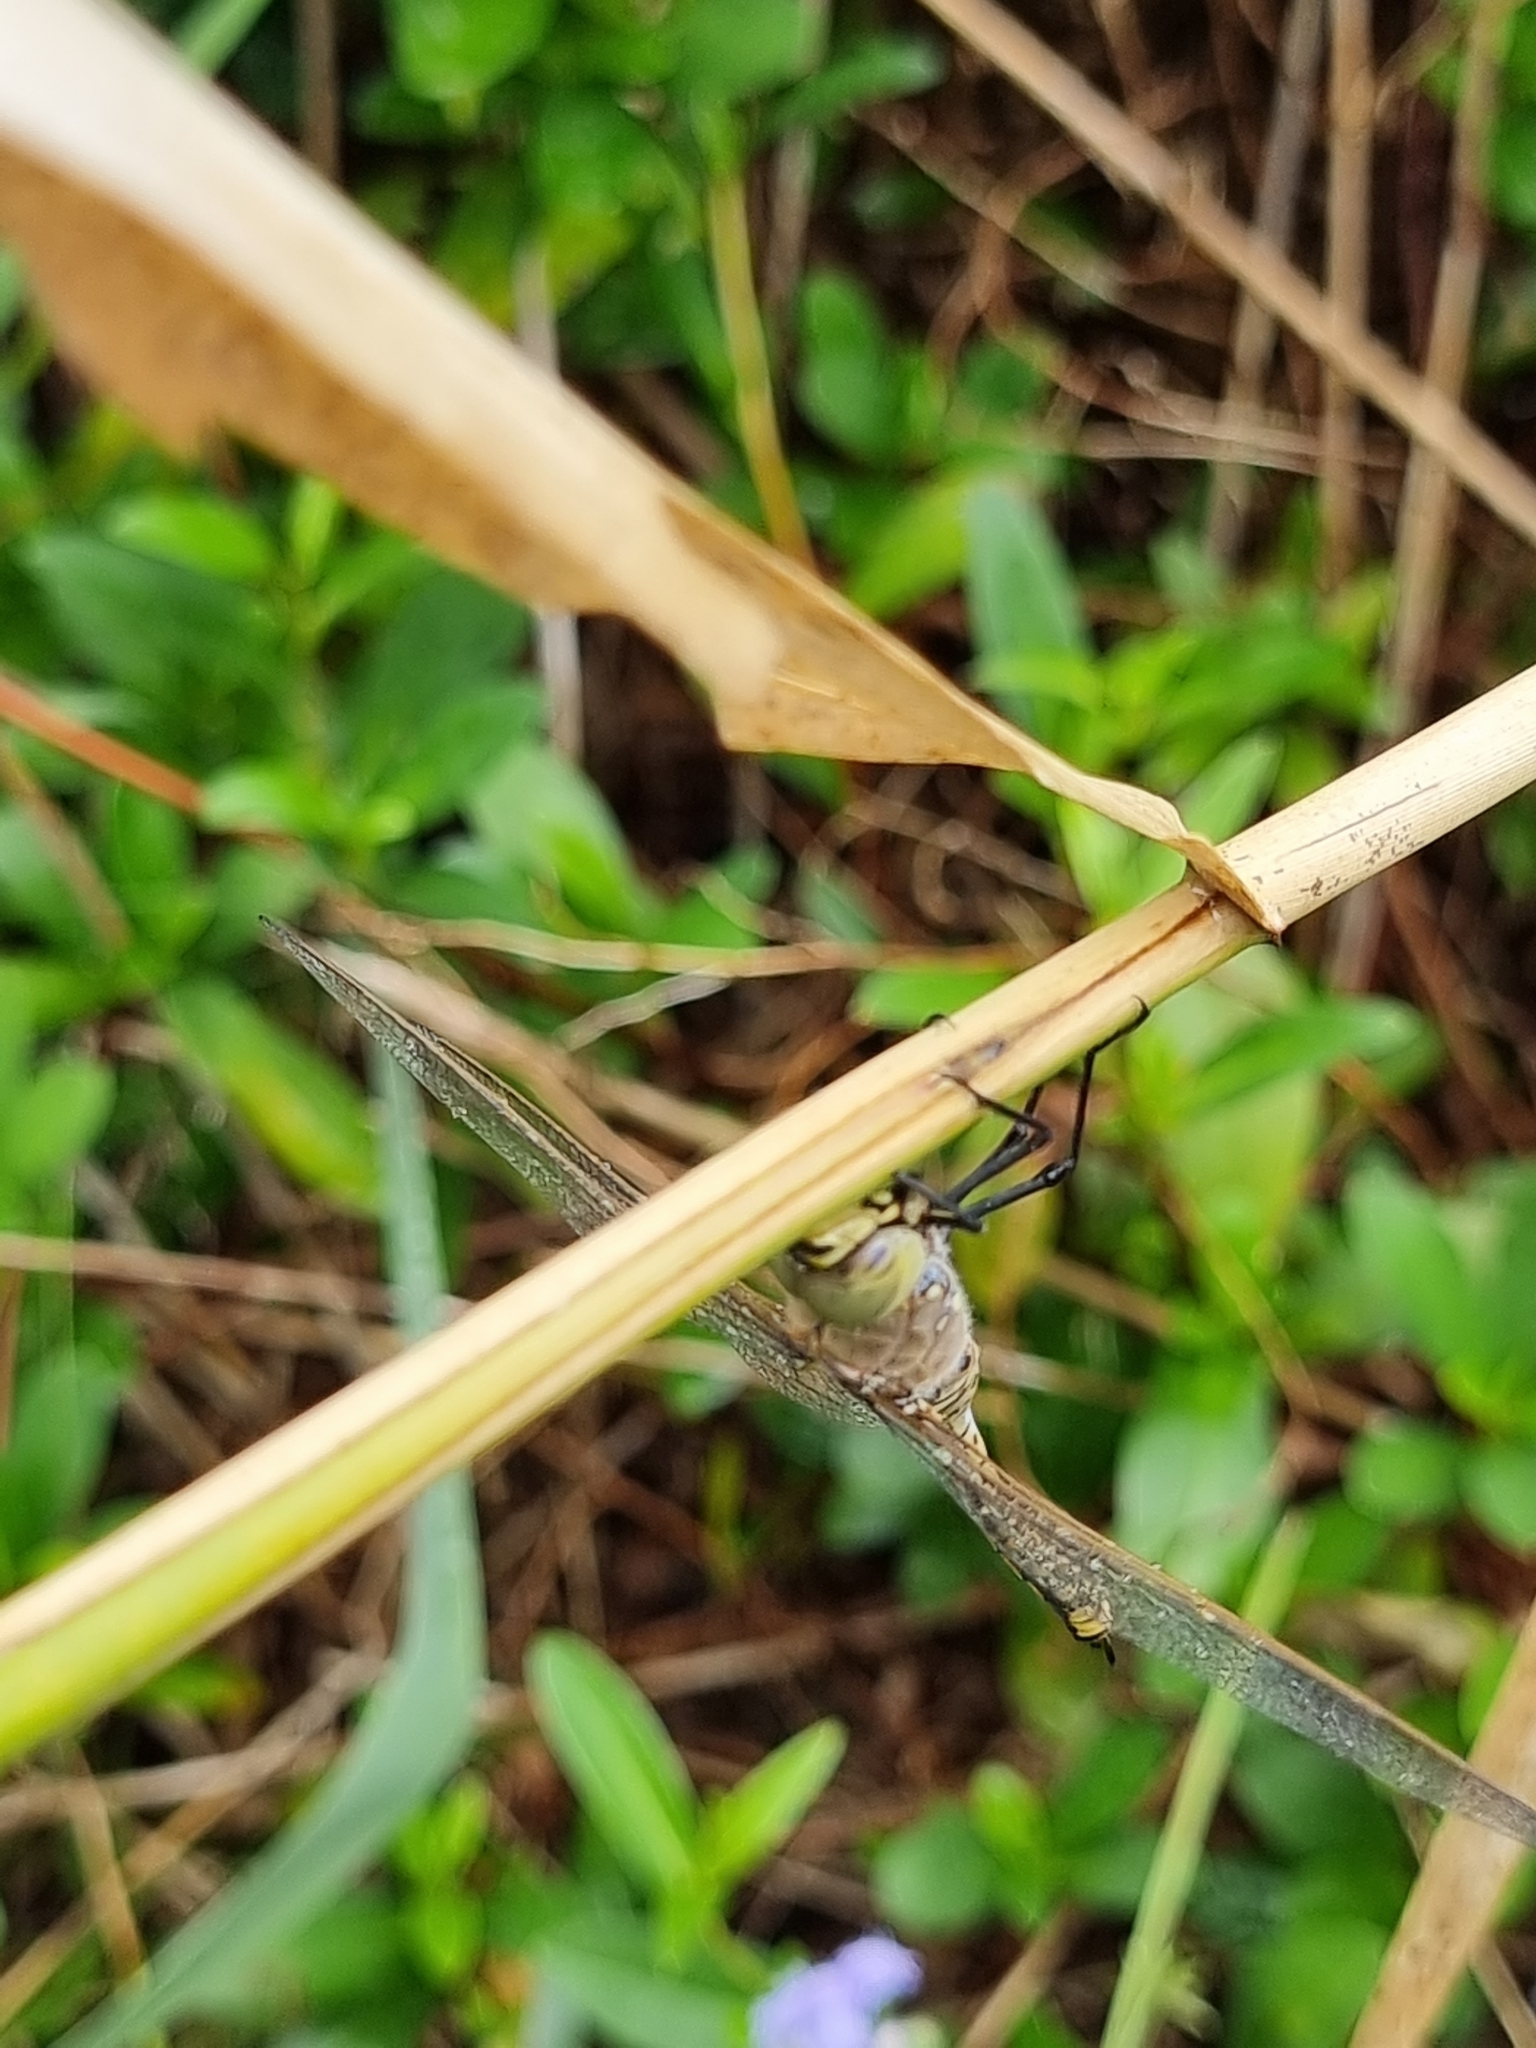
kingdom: Animalia
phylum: Arthropoda
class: Insecta
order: Odonata
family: Aeshnidae
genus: Anax
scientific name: Anax papuensis
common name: Australian emperor
